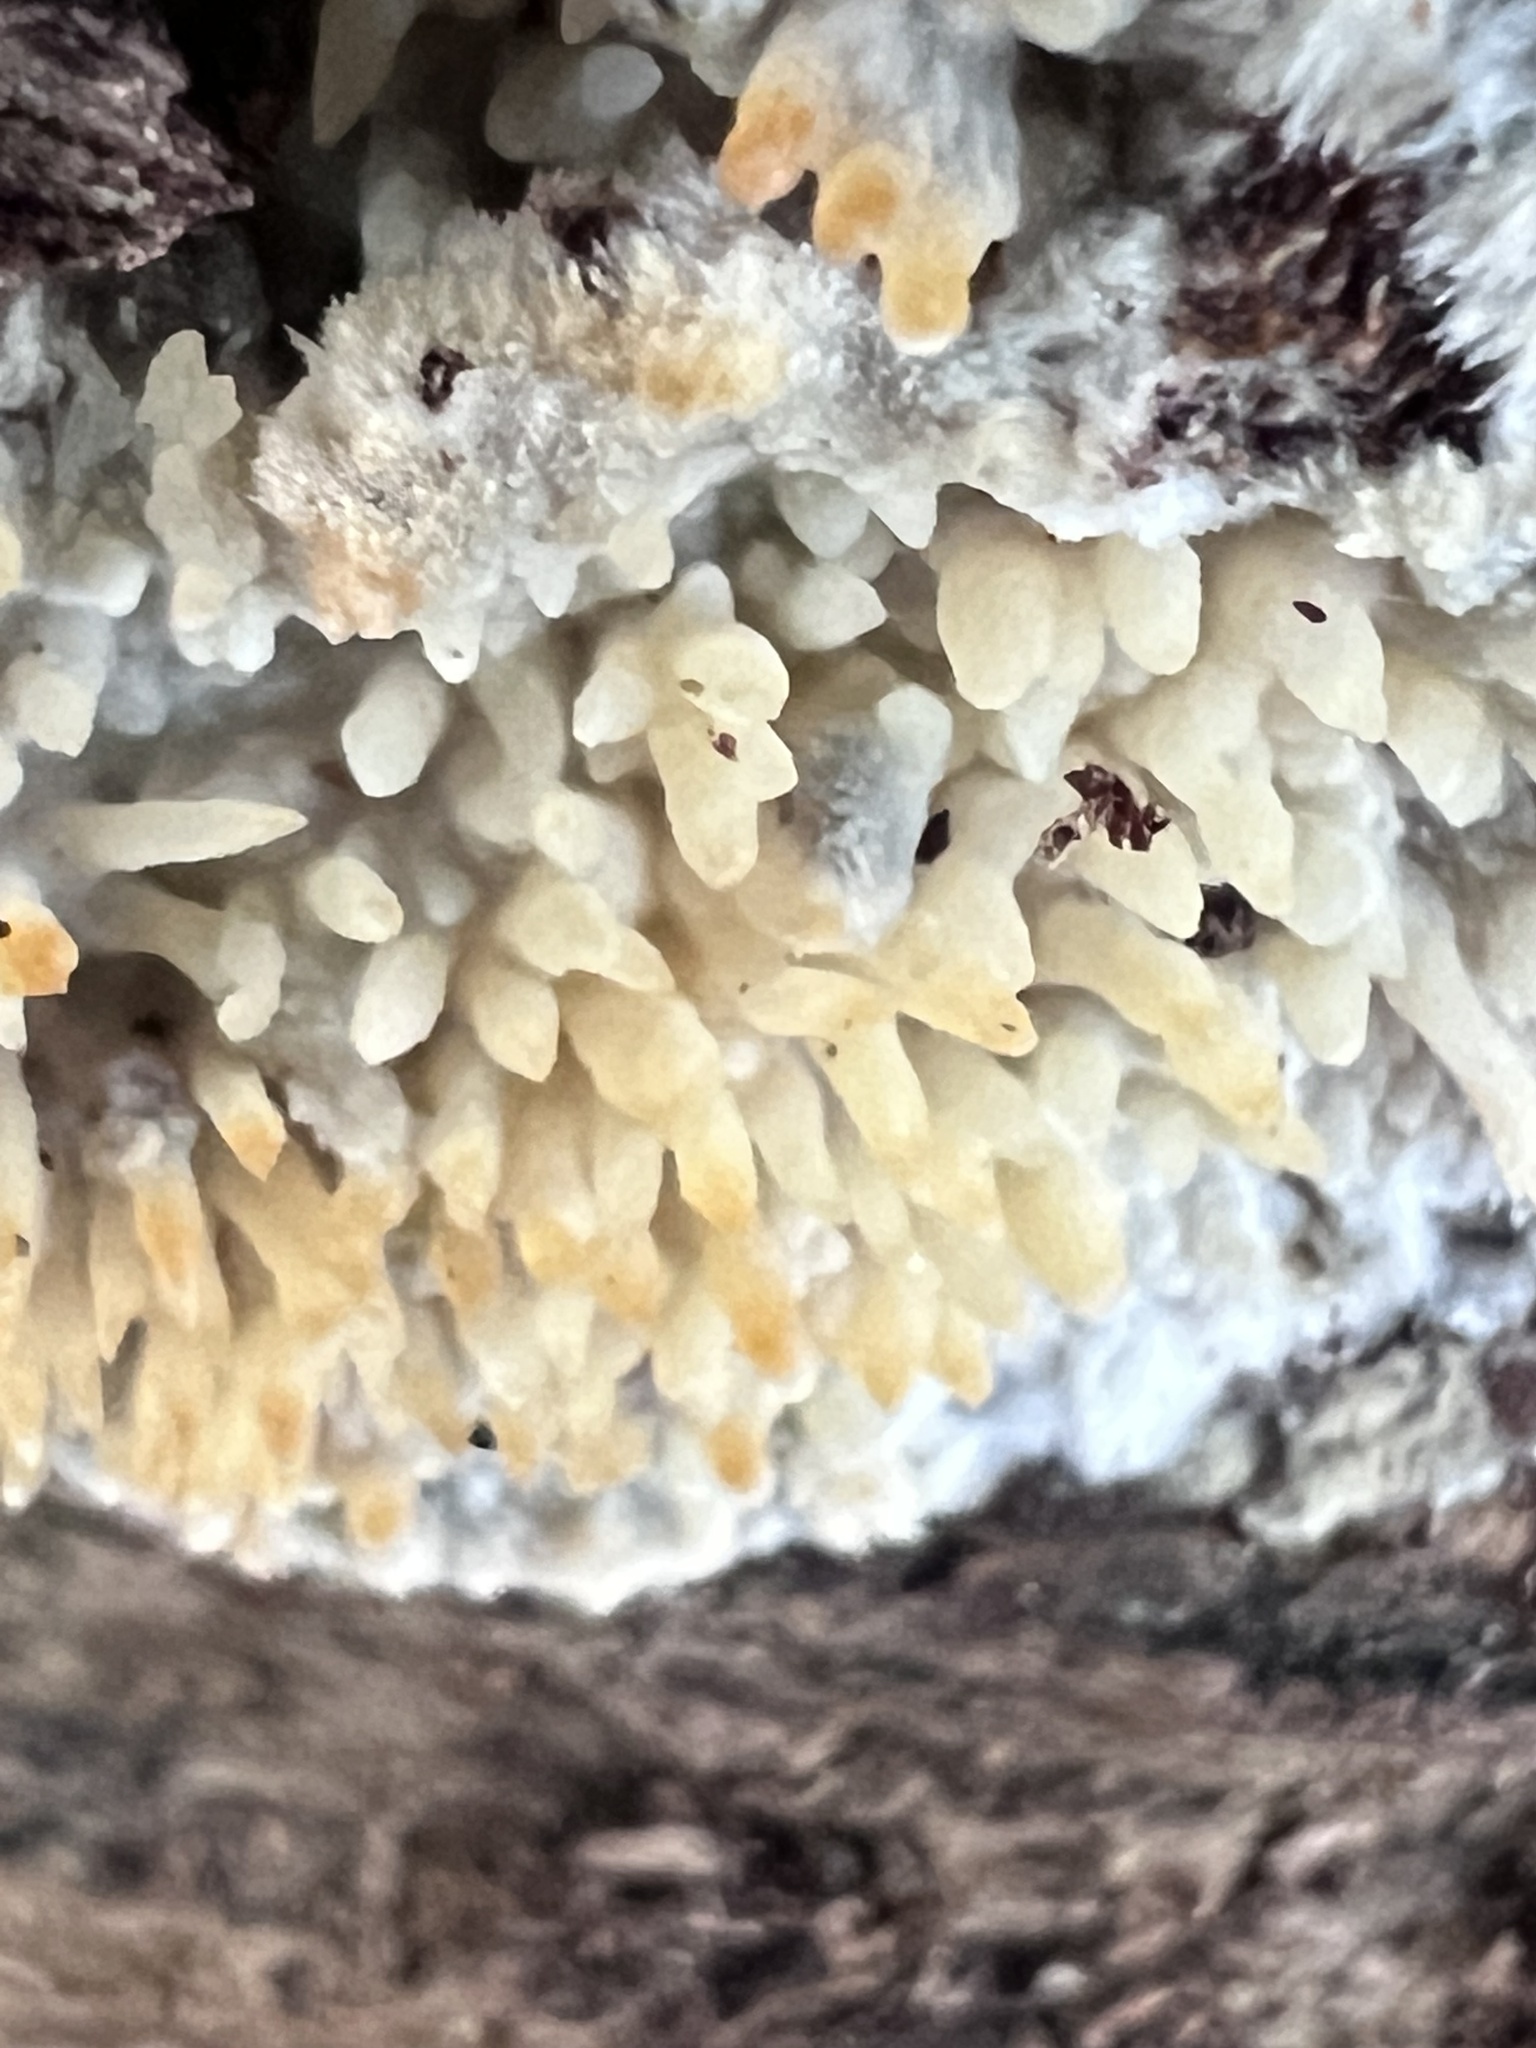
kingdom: Fungi
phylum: Basidiomycota
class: Agaricomycetes
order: Agaricales
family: Radulomycetaceae
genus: Radulomyces
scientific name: Radulomyces copelandii
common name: Asian beauty
